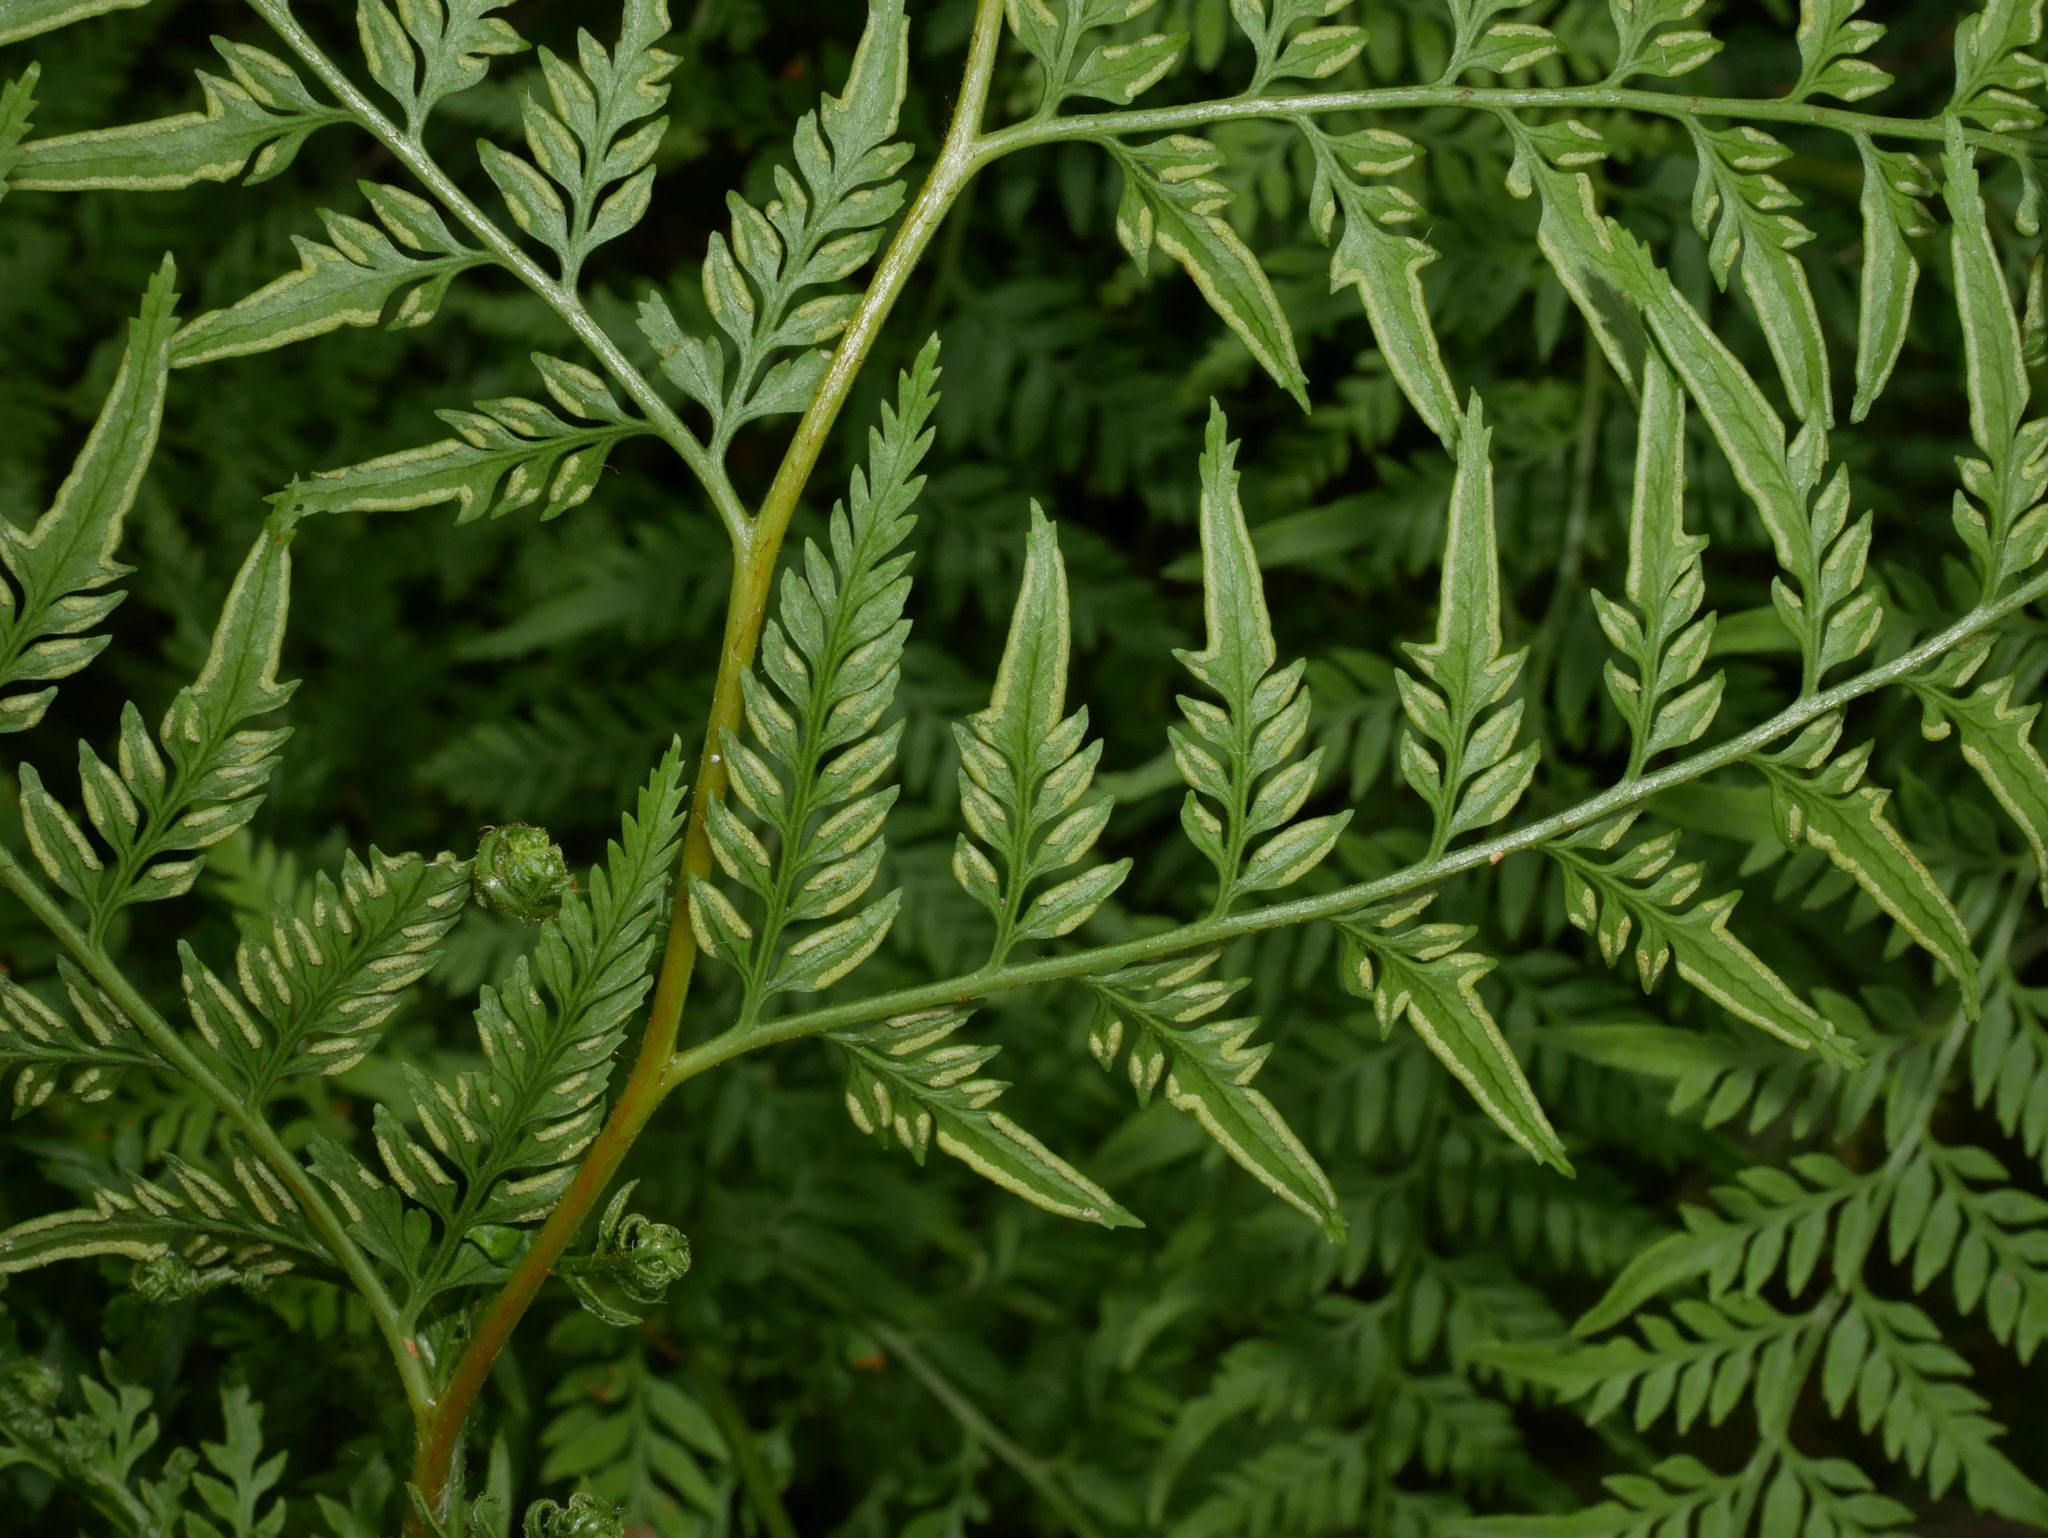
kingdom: Plantae
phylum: Tracheophyta
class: Polypodiopsida
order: Polypodiales
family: Dennstaedtiaceae
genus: Paesia
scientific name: Paesia scaberula
